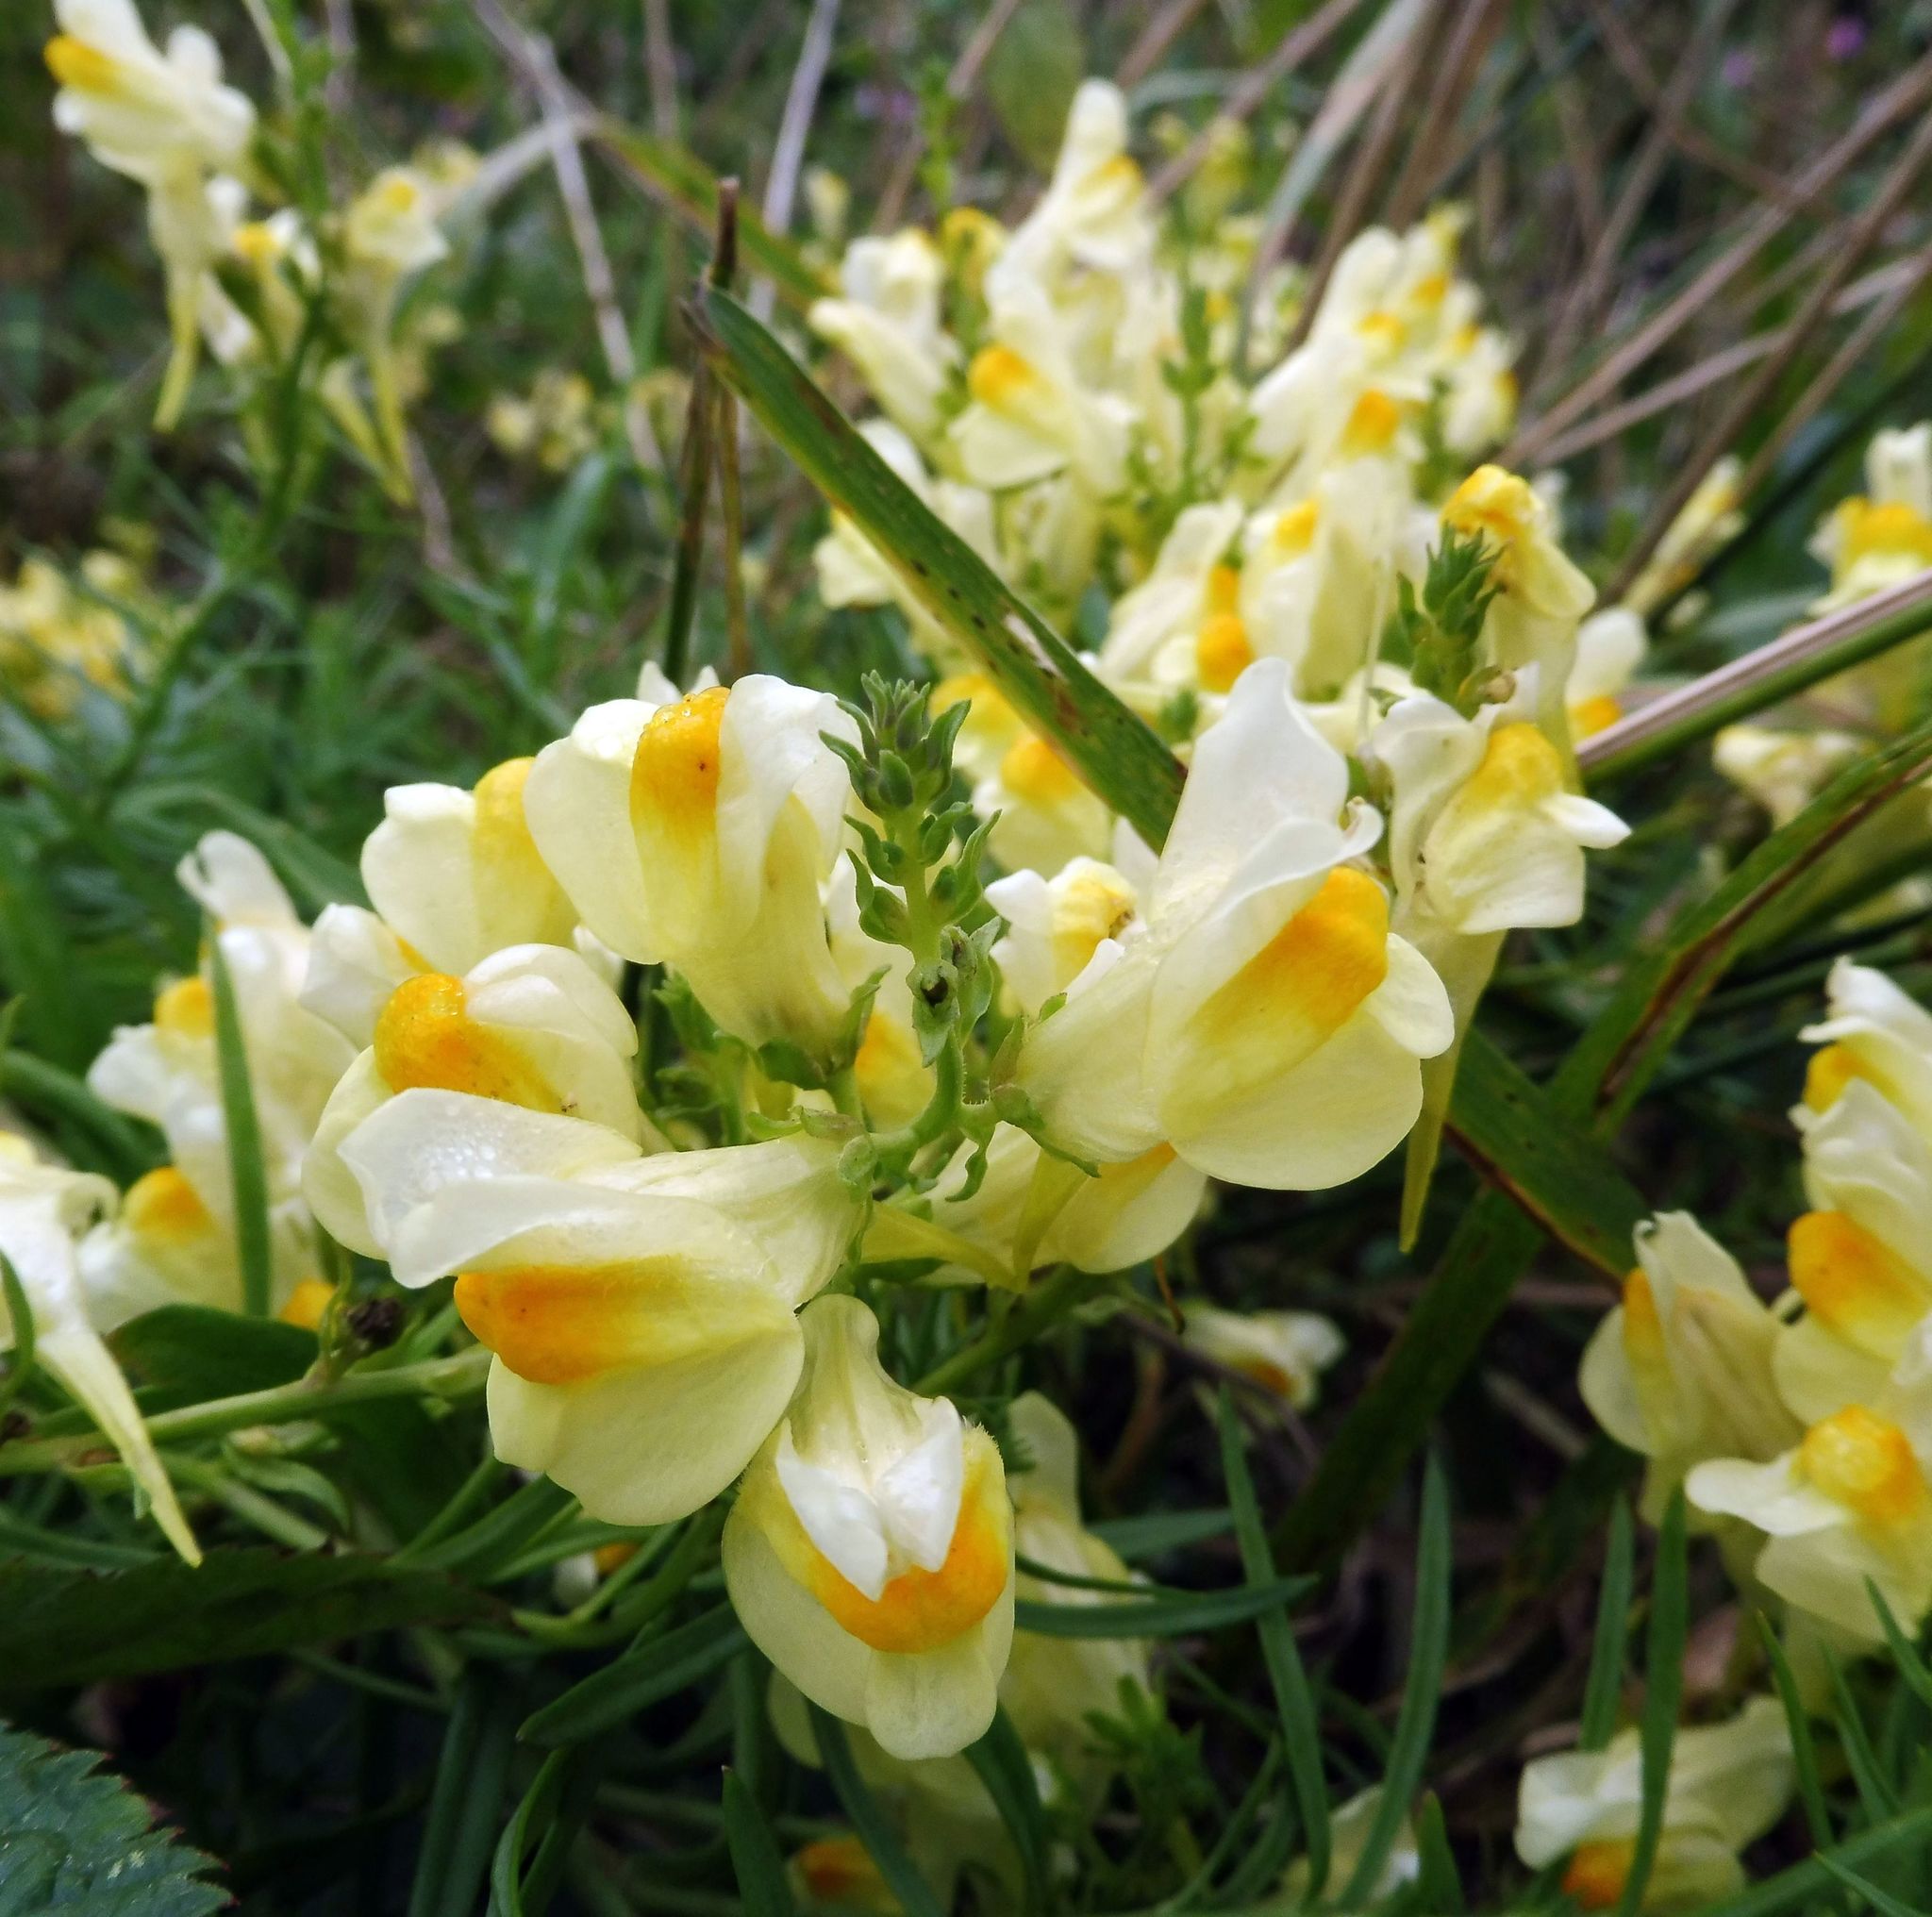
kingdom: Plantae
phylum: Tracheophyta
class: Magnoliopsida
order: Lamiales
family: Plantaginaceae
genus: Linaria
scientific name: Linaria vulgaris
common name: Butter and eggs
